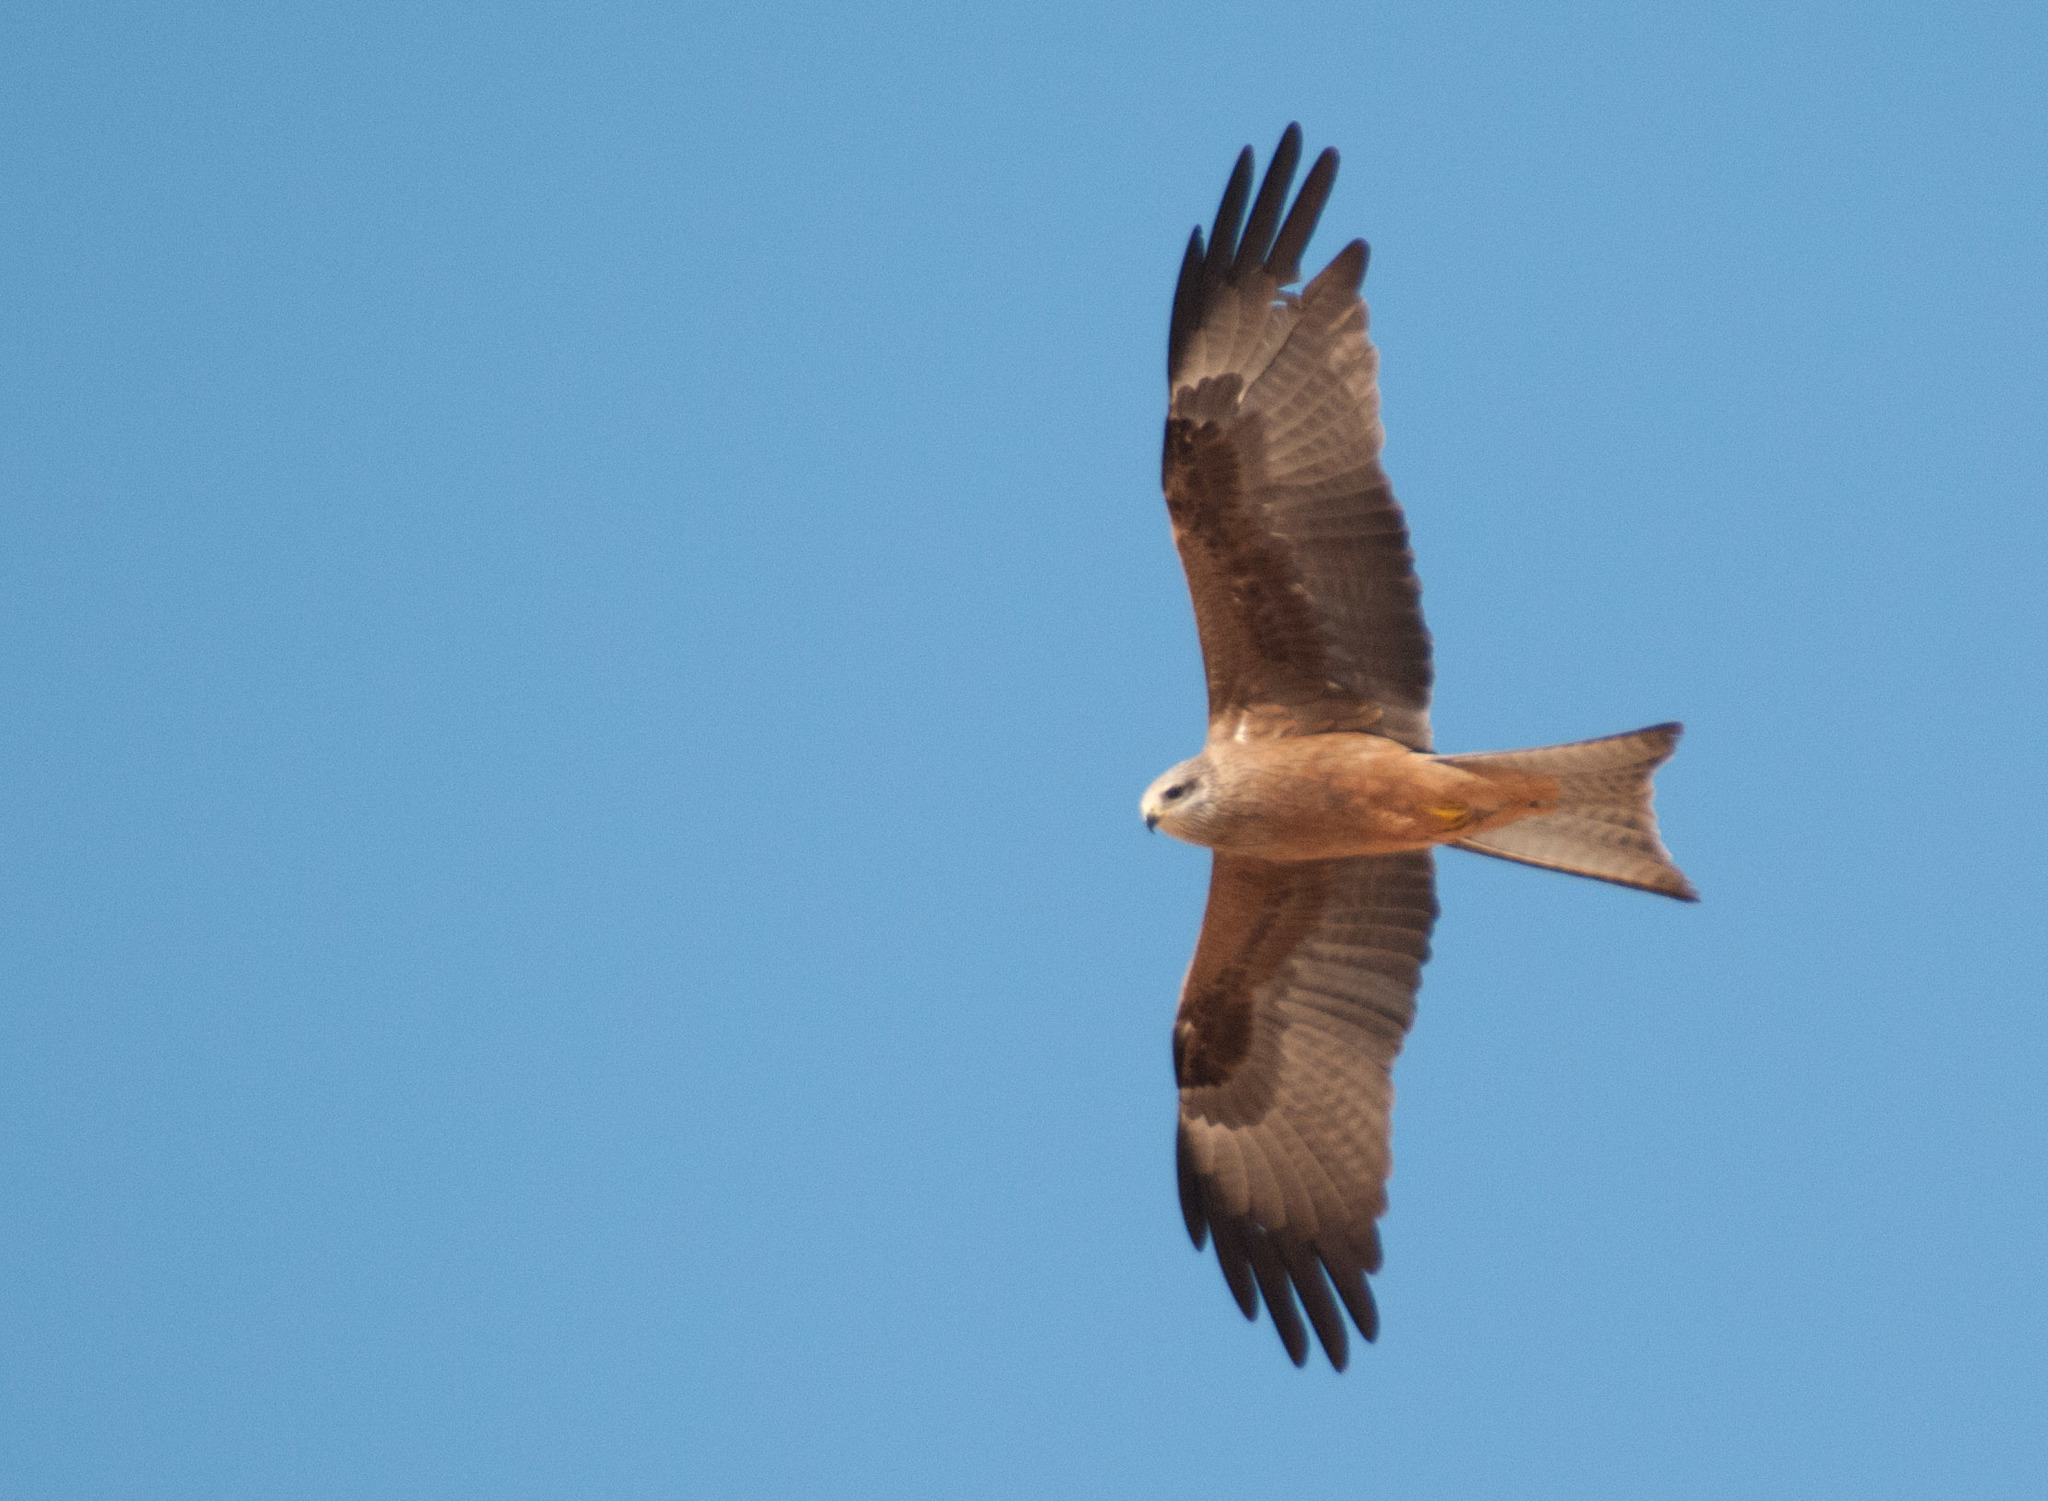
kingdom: Animalia
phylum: Chordata
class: Aves
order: Accipitriformes
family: Accipitridae
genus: Milvus
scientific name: Milvus migrans
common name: Black kite
